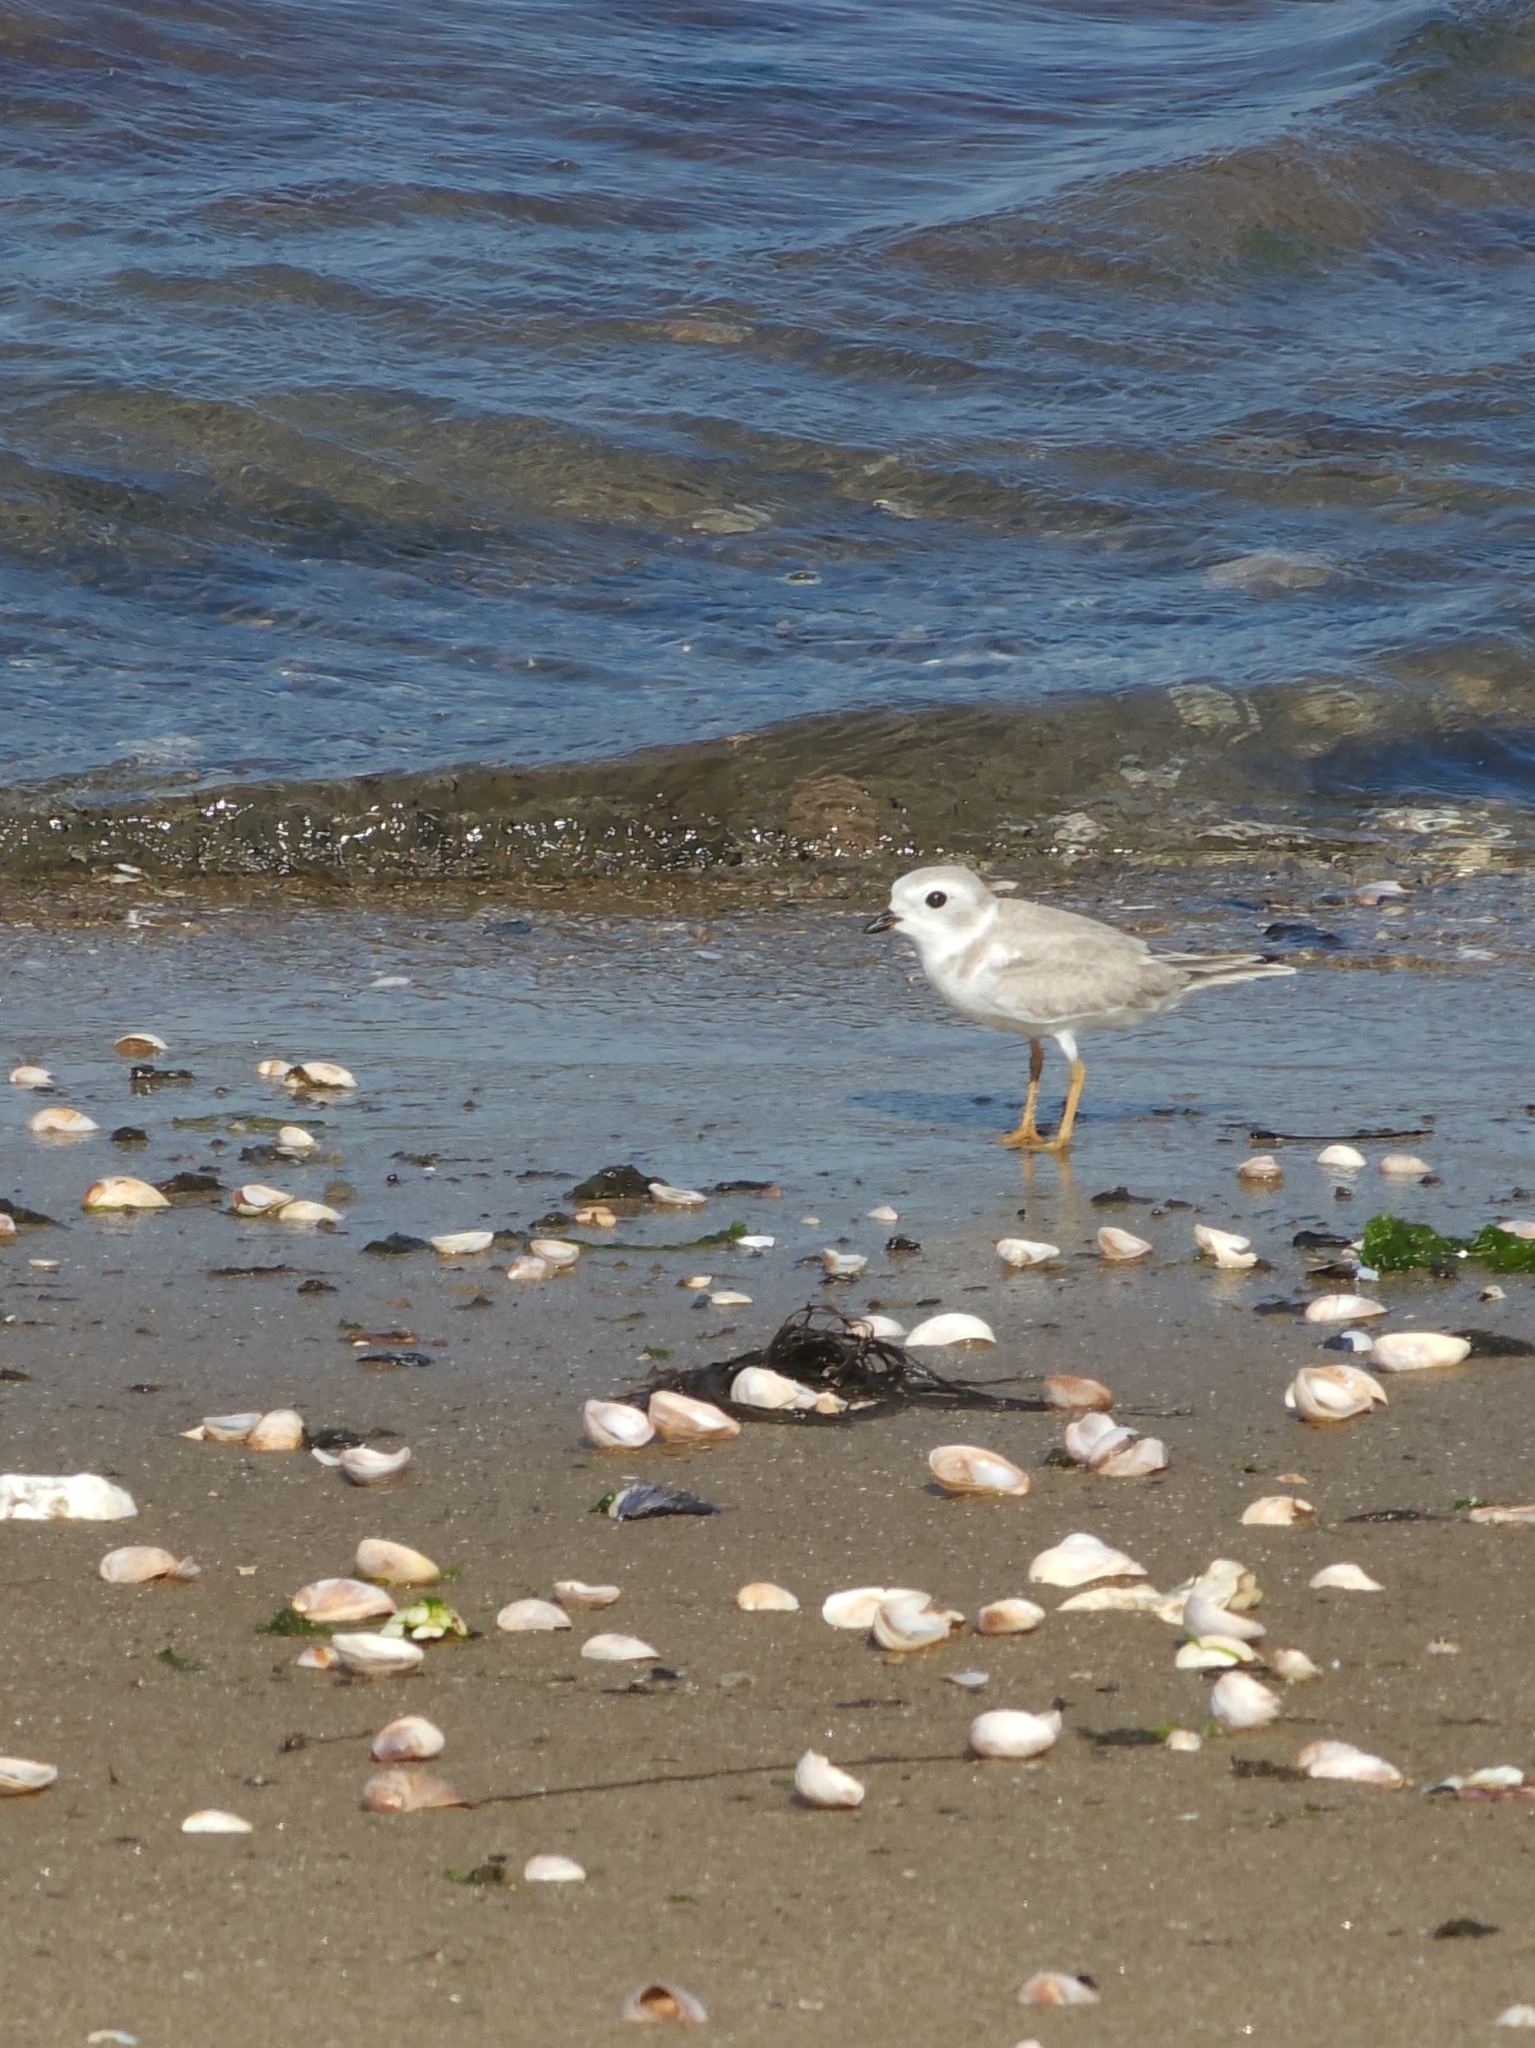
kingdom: Animalia
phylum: Chordata
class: Aves
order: Charadriiformes
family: Charadriidae
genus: Charadrius
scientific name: Charadrius melodus
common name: Piping plover
